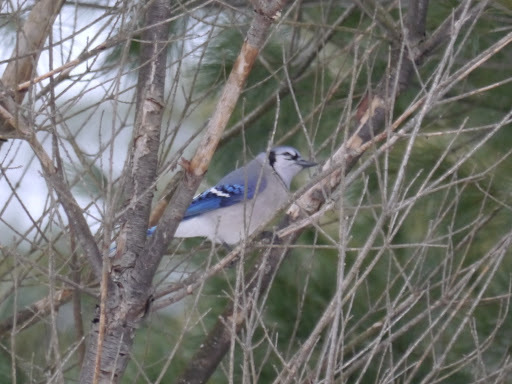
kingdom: Animalia
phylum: Chordata
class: Aves
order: Passeriformes
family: Corvidae
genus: Cyanocitta
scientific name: Cyanocitta cristata
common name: Blue jay
